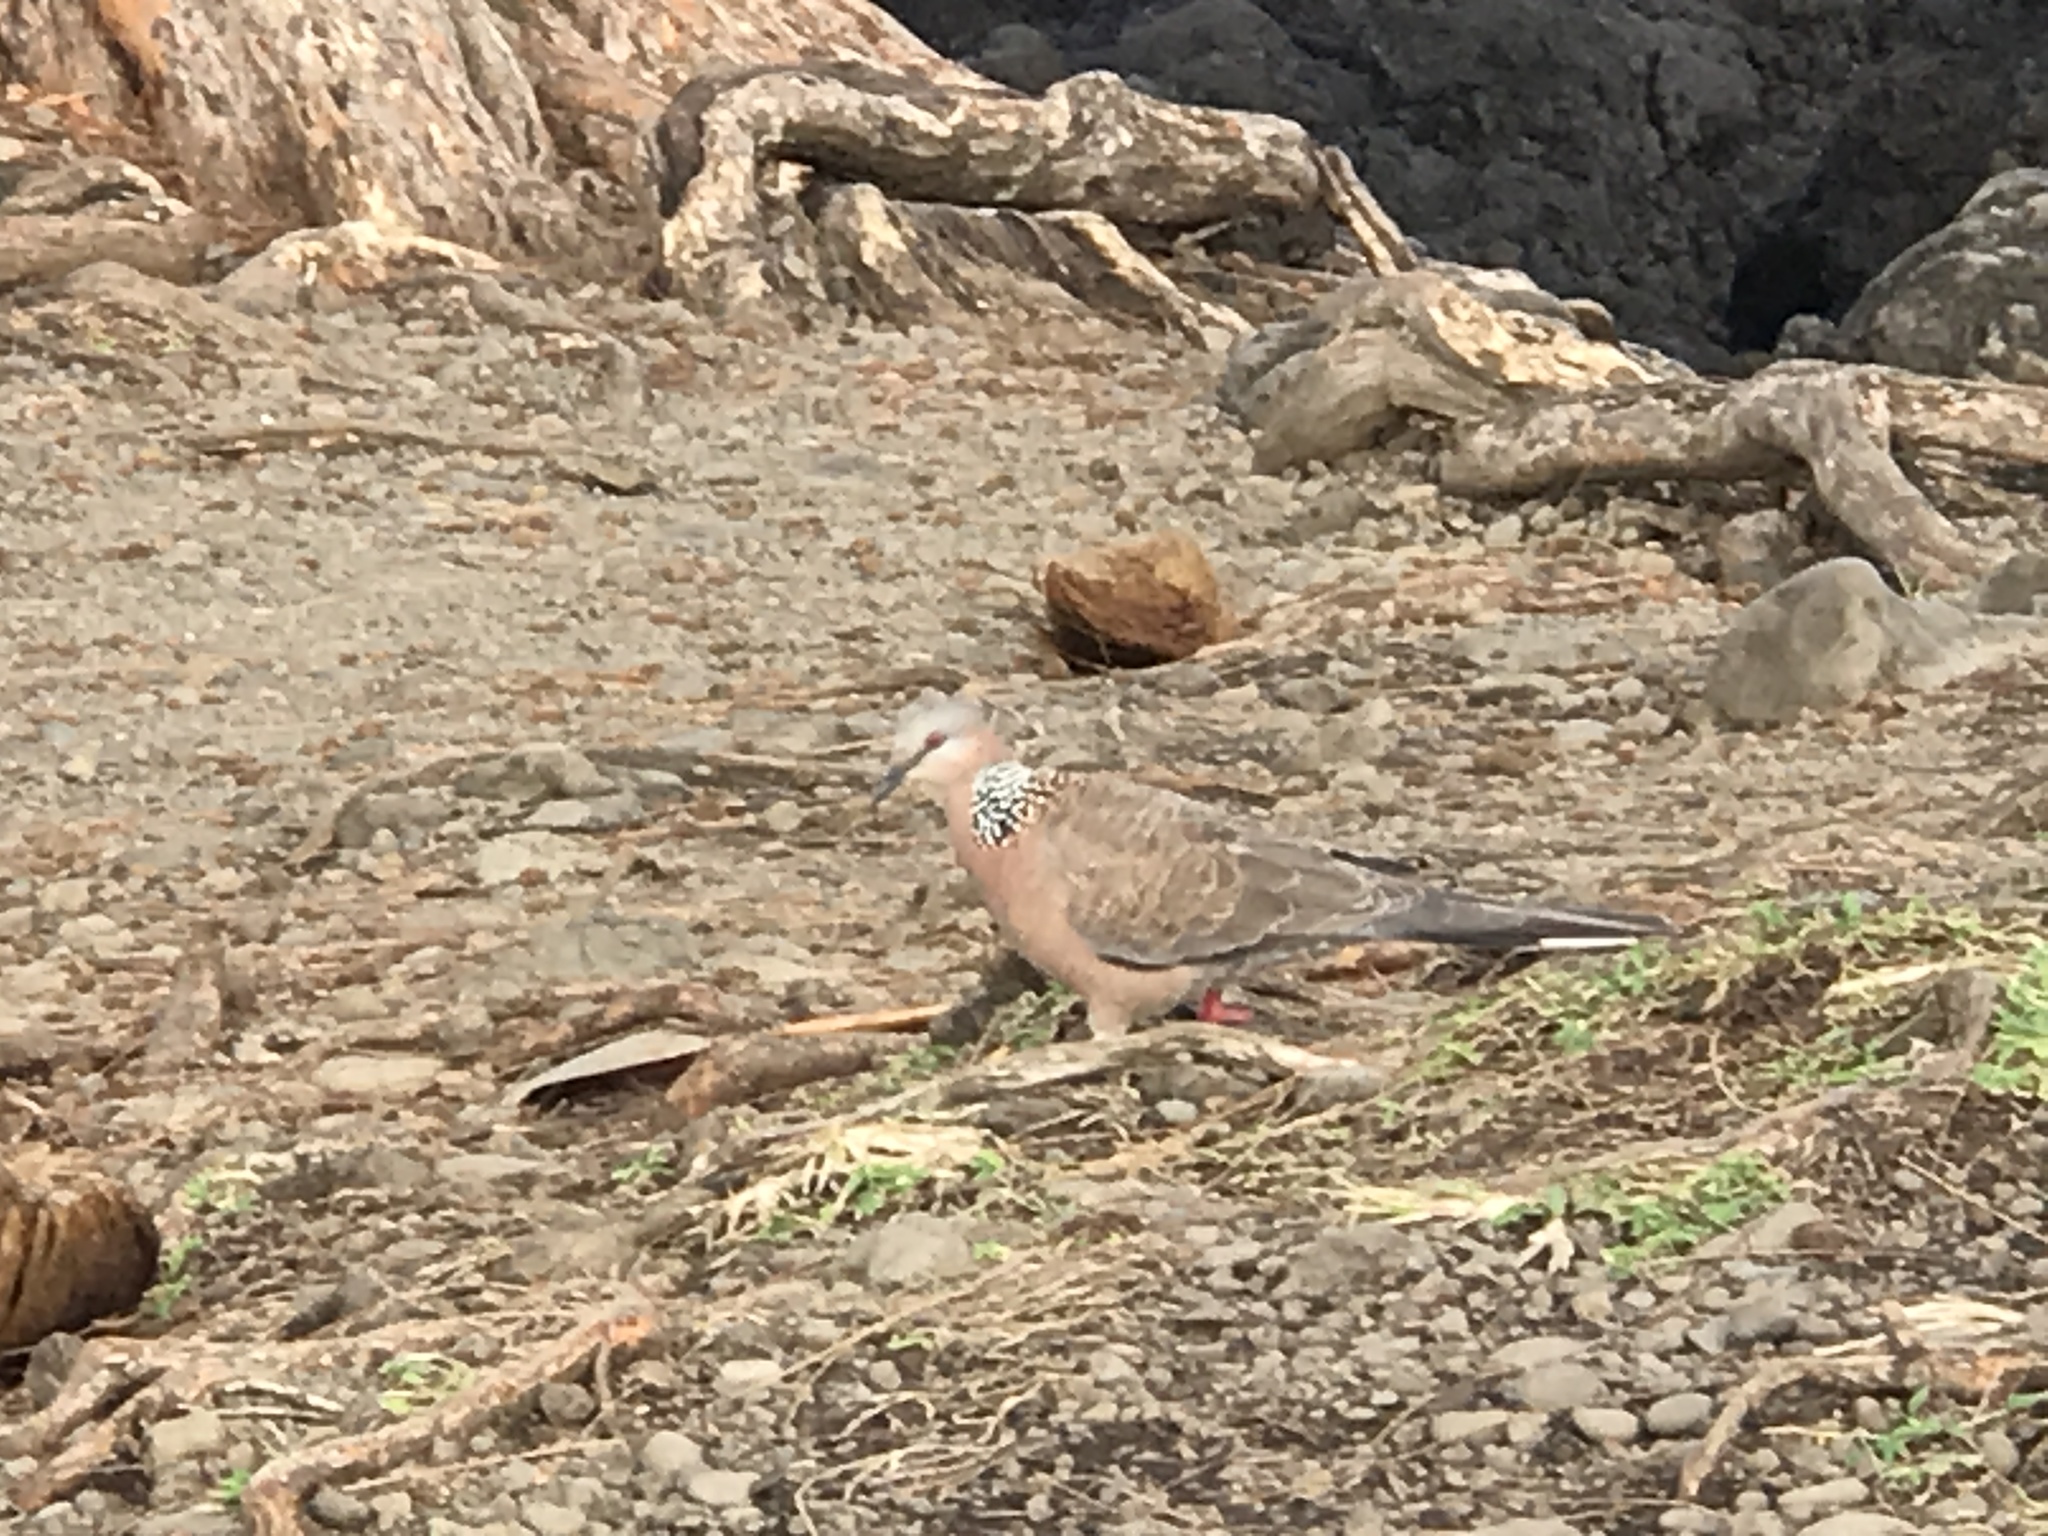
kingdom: Animalia
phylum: Chordata
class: Aves
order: Columbiformes
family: Columbidae
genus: Spilopelia
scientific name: Spilopelia chinensis
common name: Spotted dove
